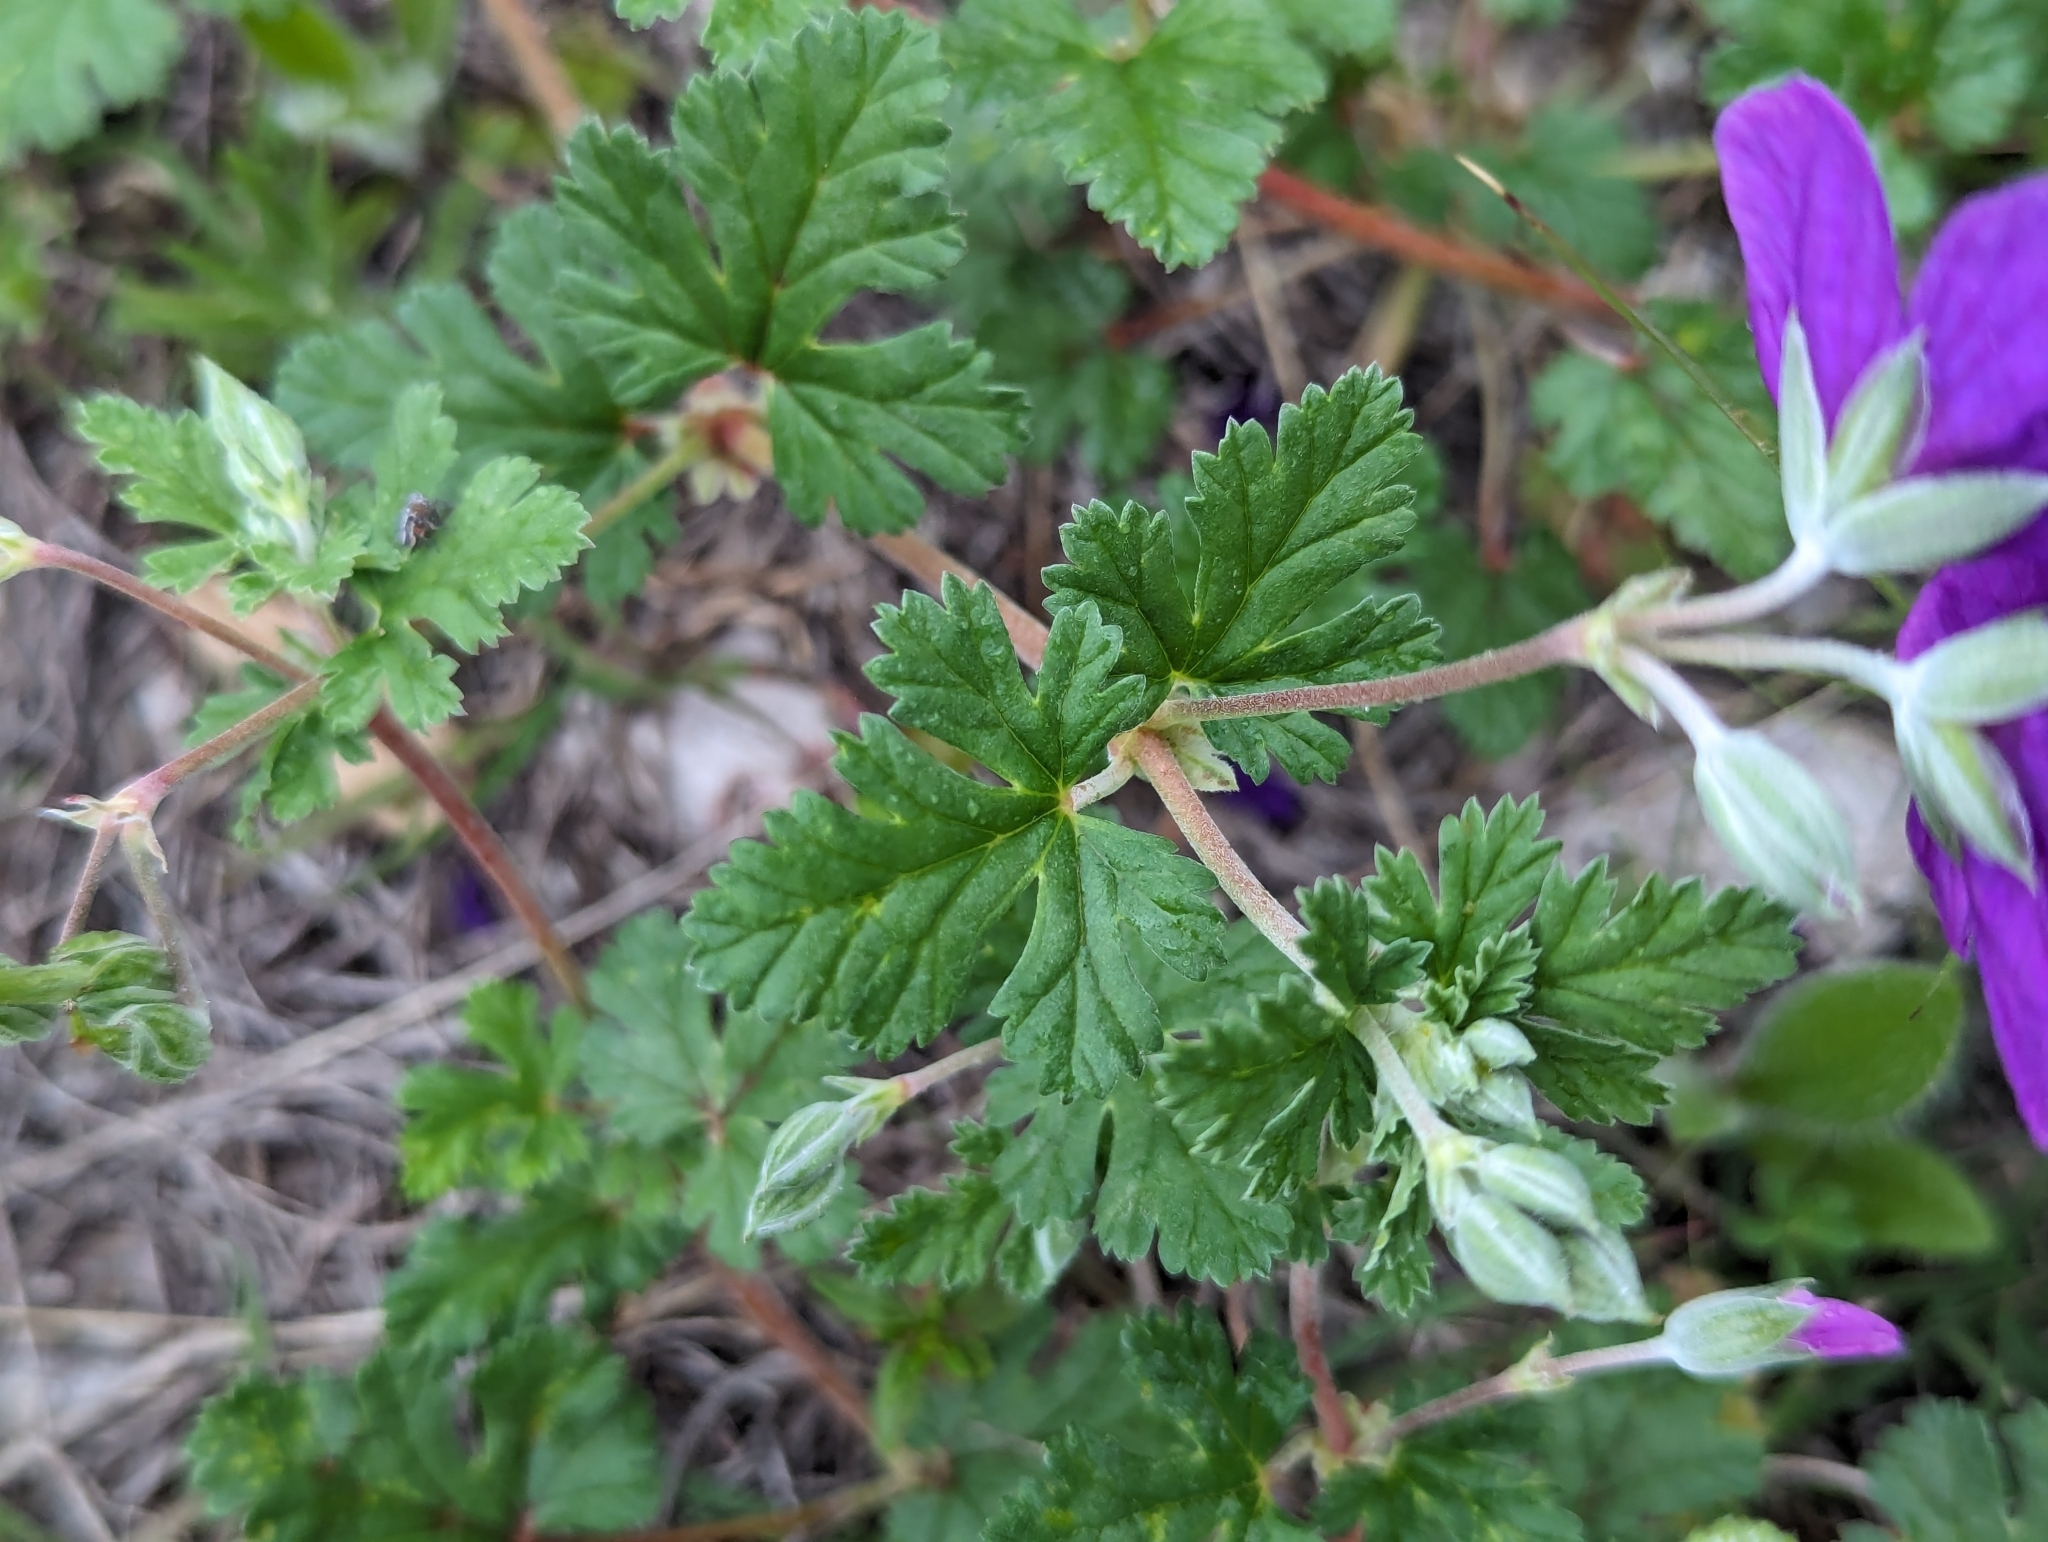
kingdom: Plantae
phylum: Tracheophyta
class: Magnoliopsida
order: Geraniales
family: Geraniaceae
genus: Erodium
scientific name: Erodium texanum
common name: Texas stork's-bill
